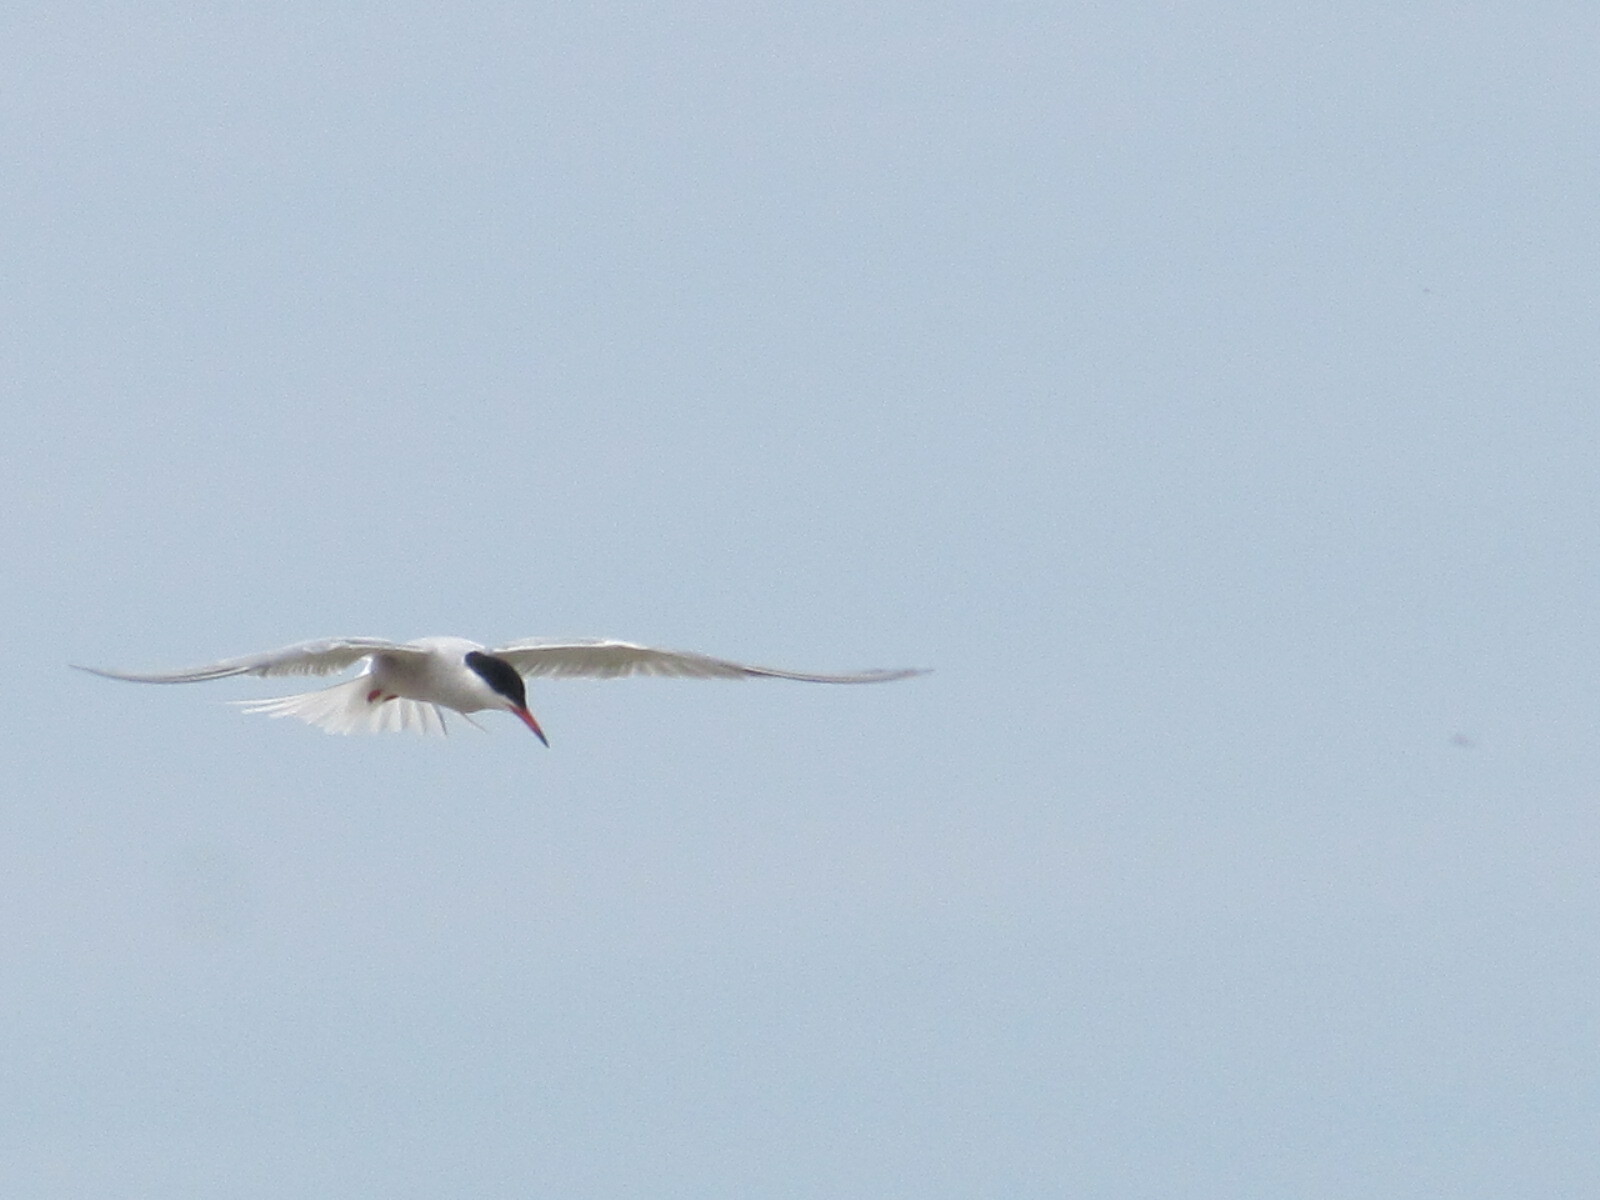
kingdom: Animalia
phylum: Chordata
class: Aves
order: Charadriiformes
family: Laridae
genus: Sterna
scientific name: Sterna hirundo
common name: Common tern
